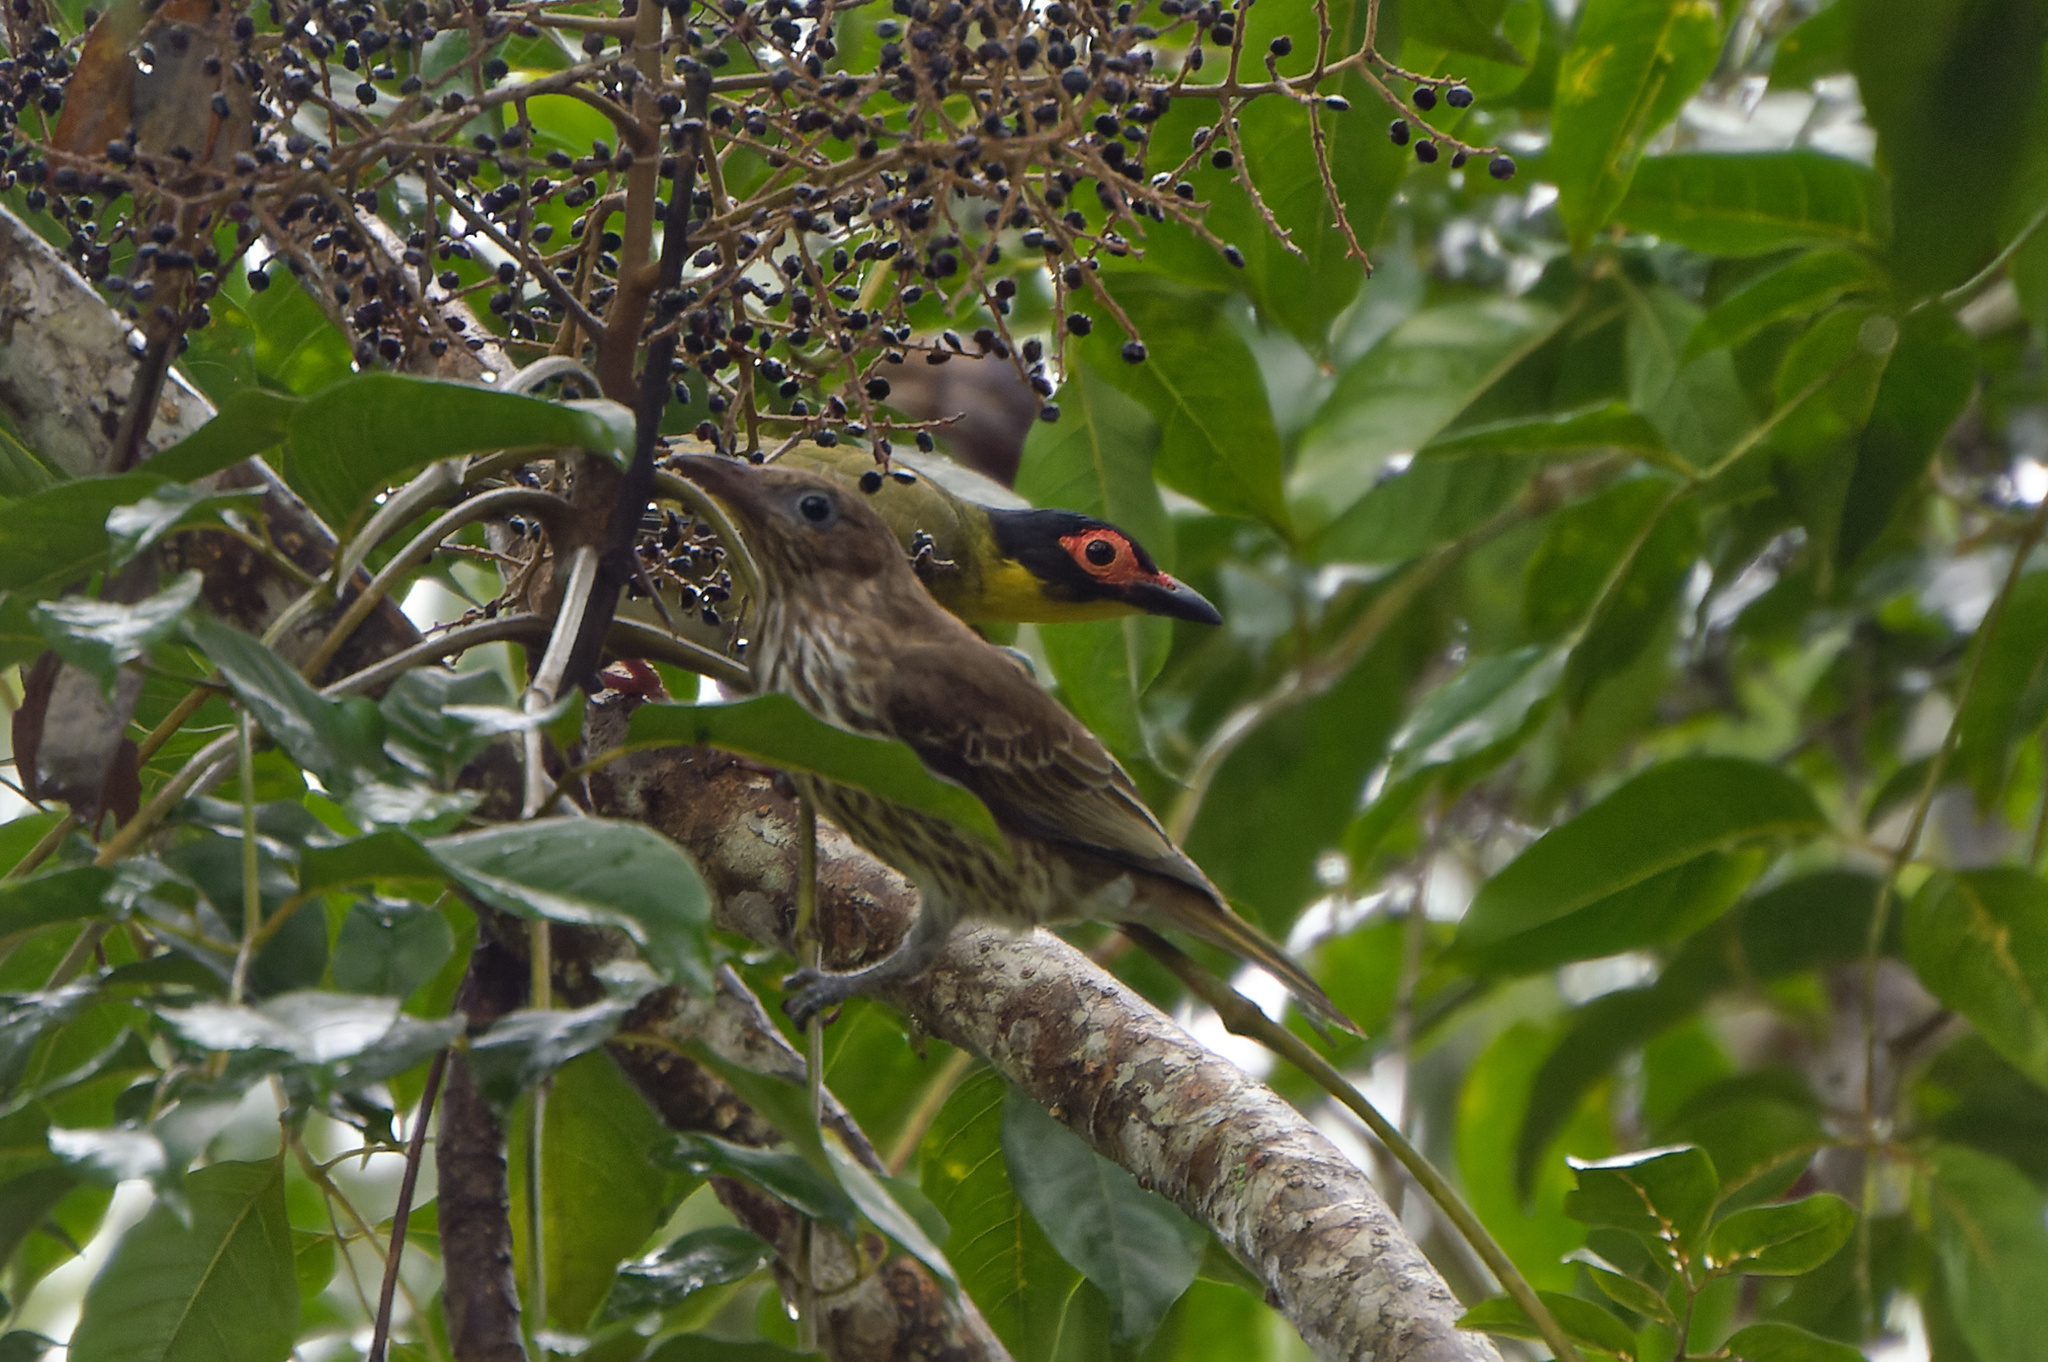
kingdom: Animalia
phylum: Chordata
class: Aves
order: Passeriformes
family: Oriolidae
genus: Sphecotheres
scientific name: Sphecotheres vieilloti
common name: Australasian figbird
